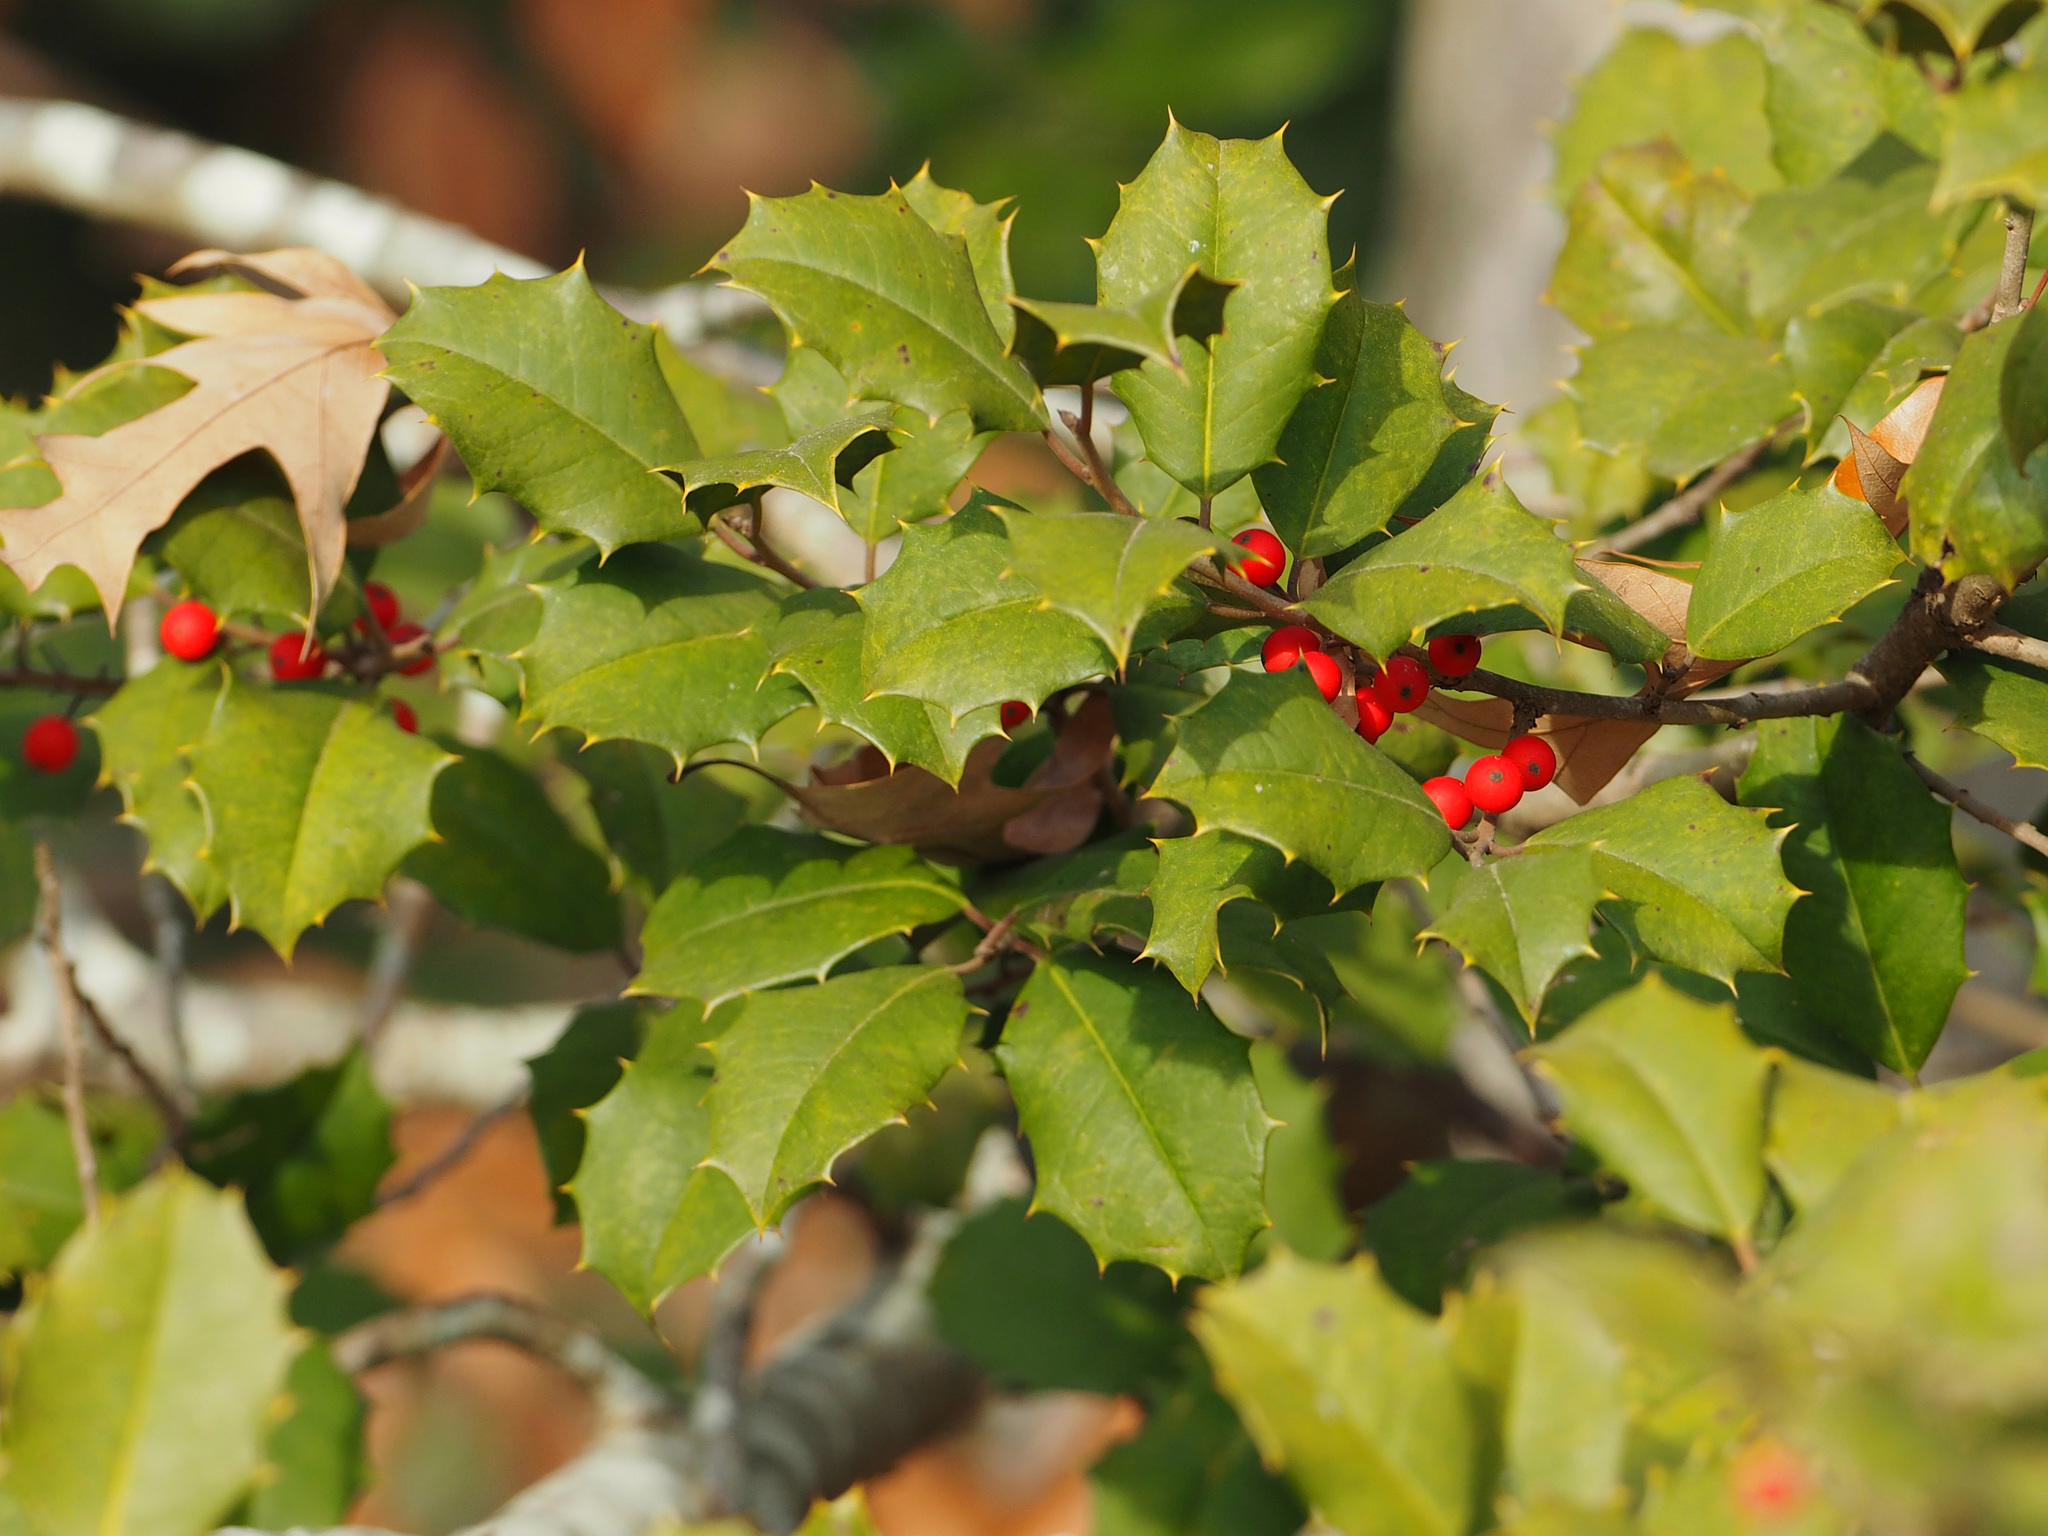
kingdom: Plantae
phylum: Tracheophyta
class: Magnoliopsida
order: Aquifoliales
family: Aquifoliaceae
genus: Ilex
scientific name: Ilex opaca
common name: American holly
